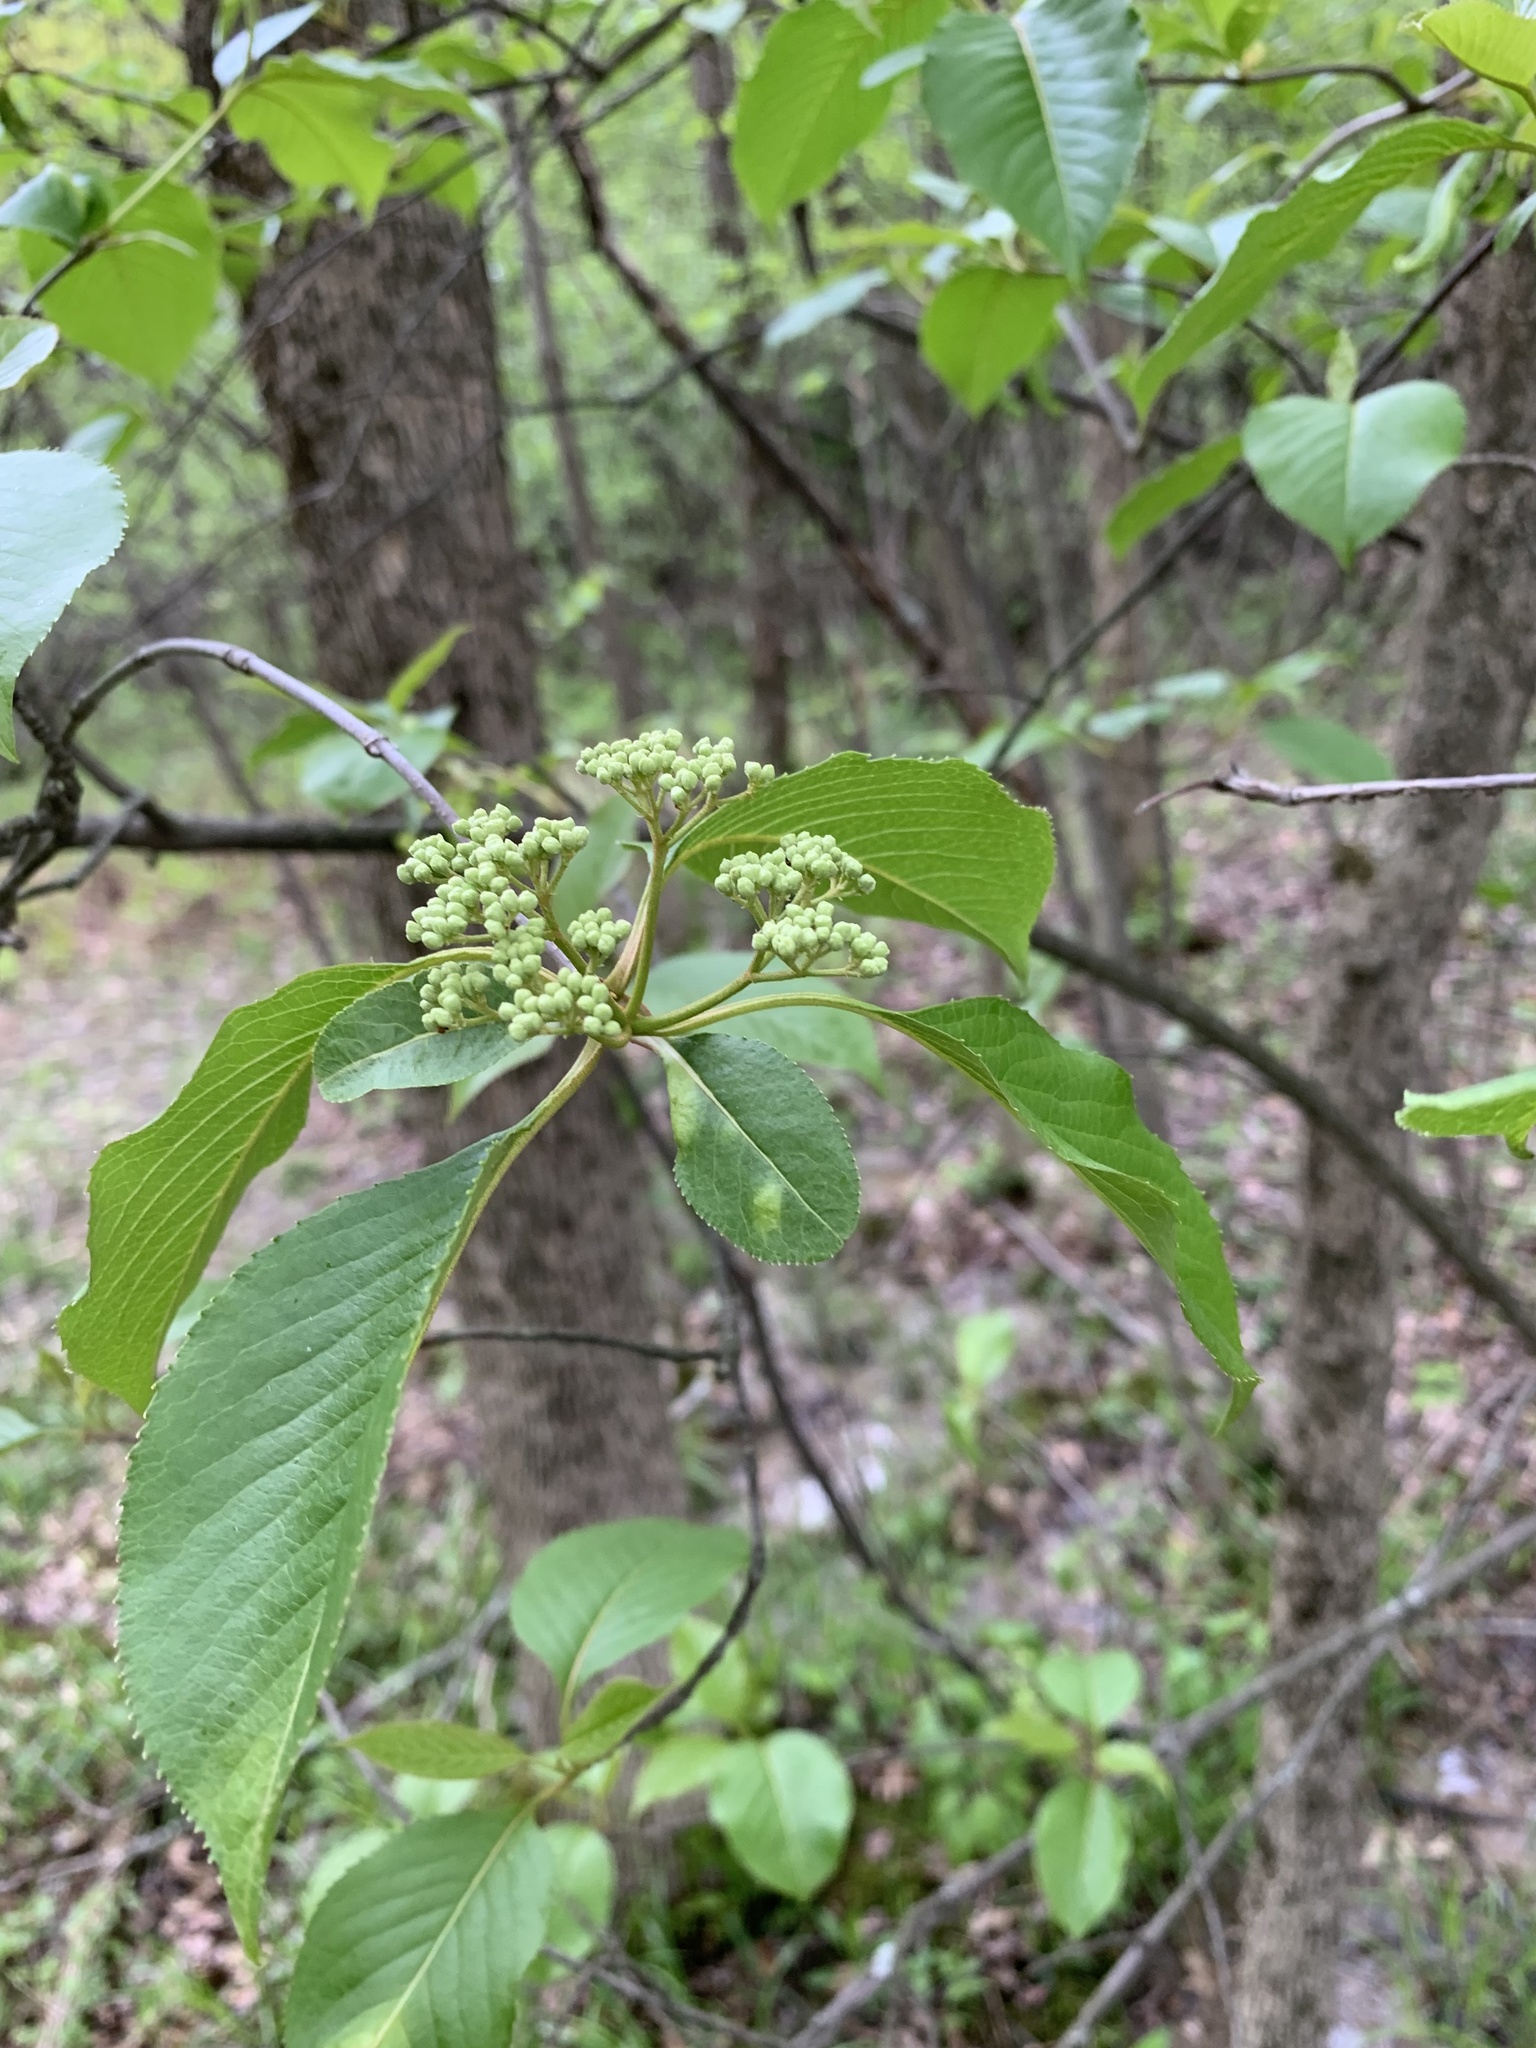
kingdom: Plantae
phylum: Tracheophyta
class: Magnoliopsida
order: Dipsacales
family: Viburnaceae
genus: Viburnum
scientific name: Viburnum lentago
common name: Black haw
